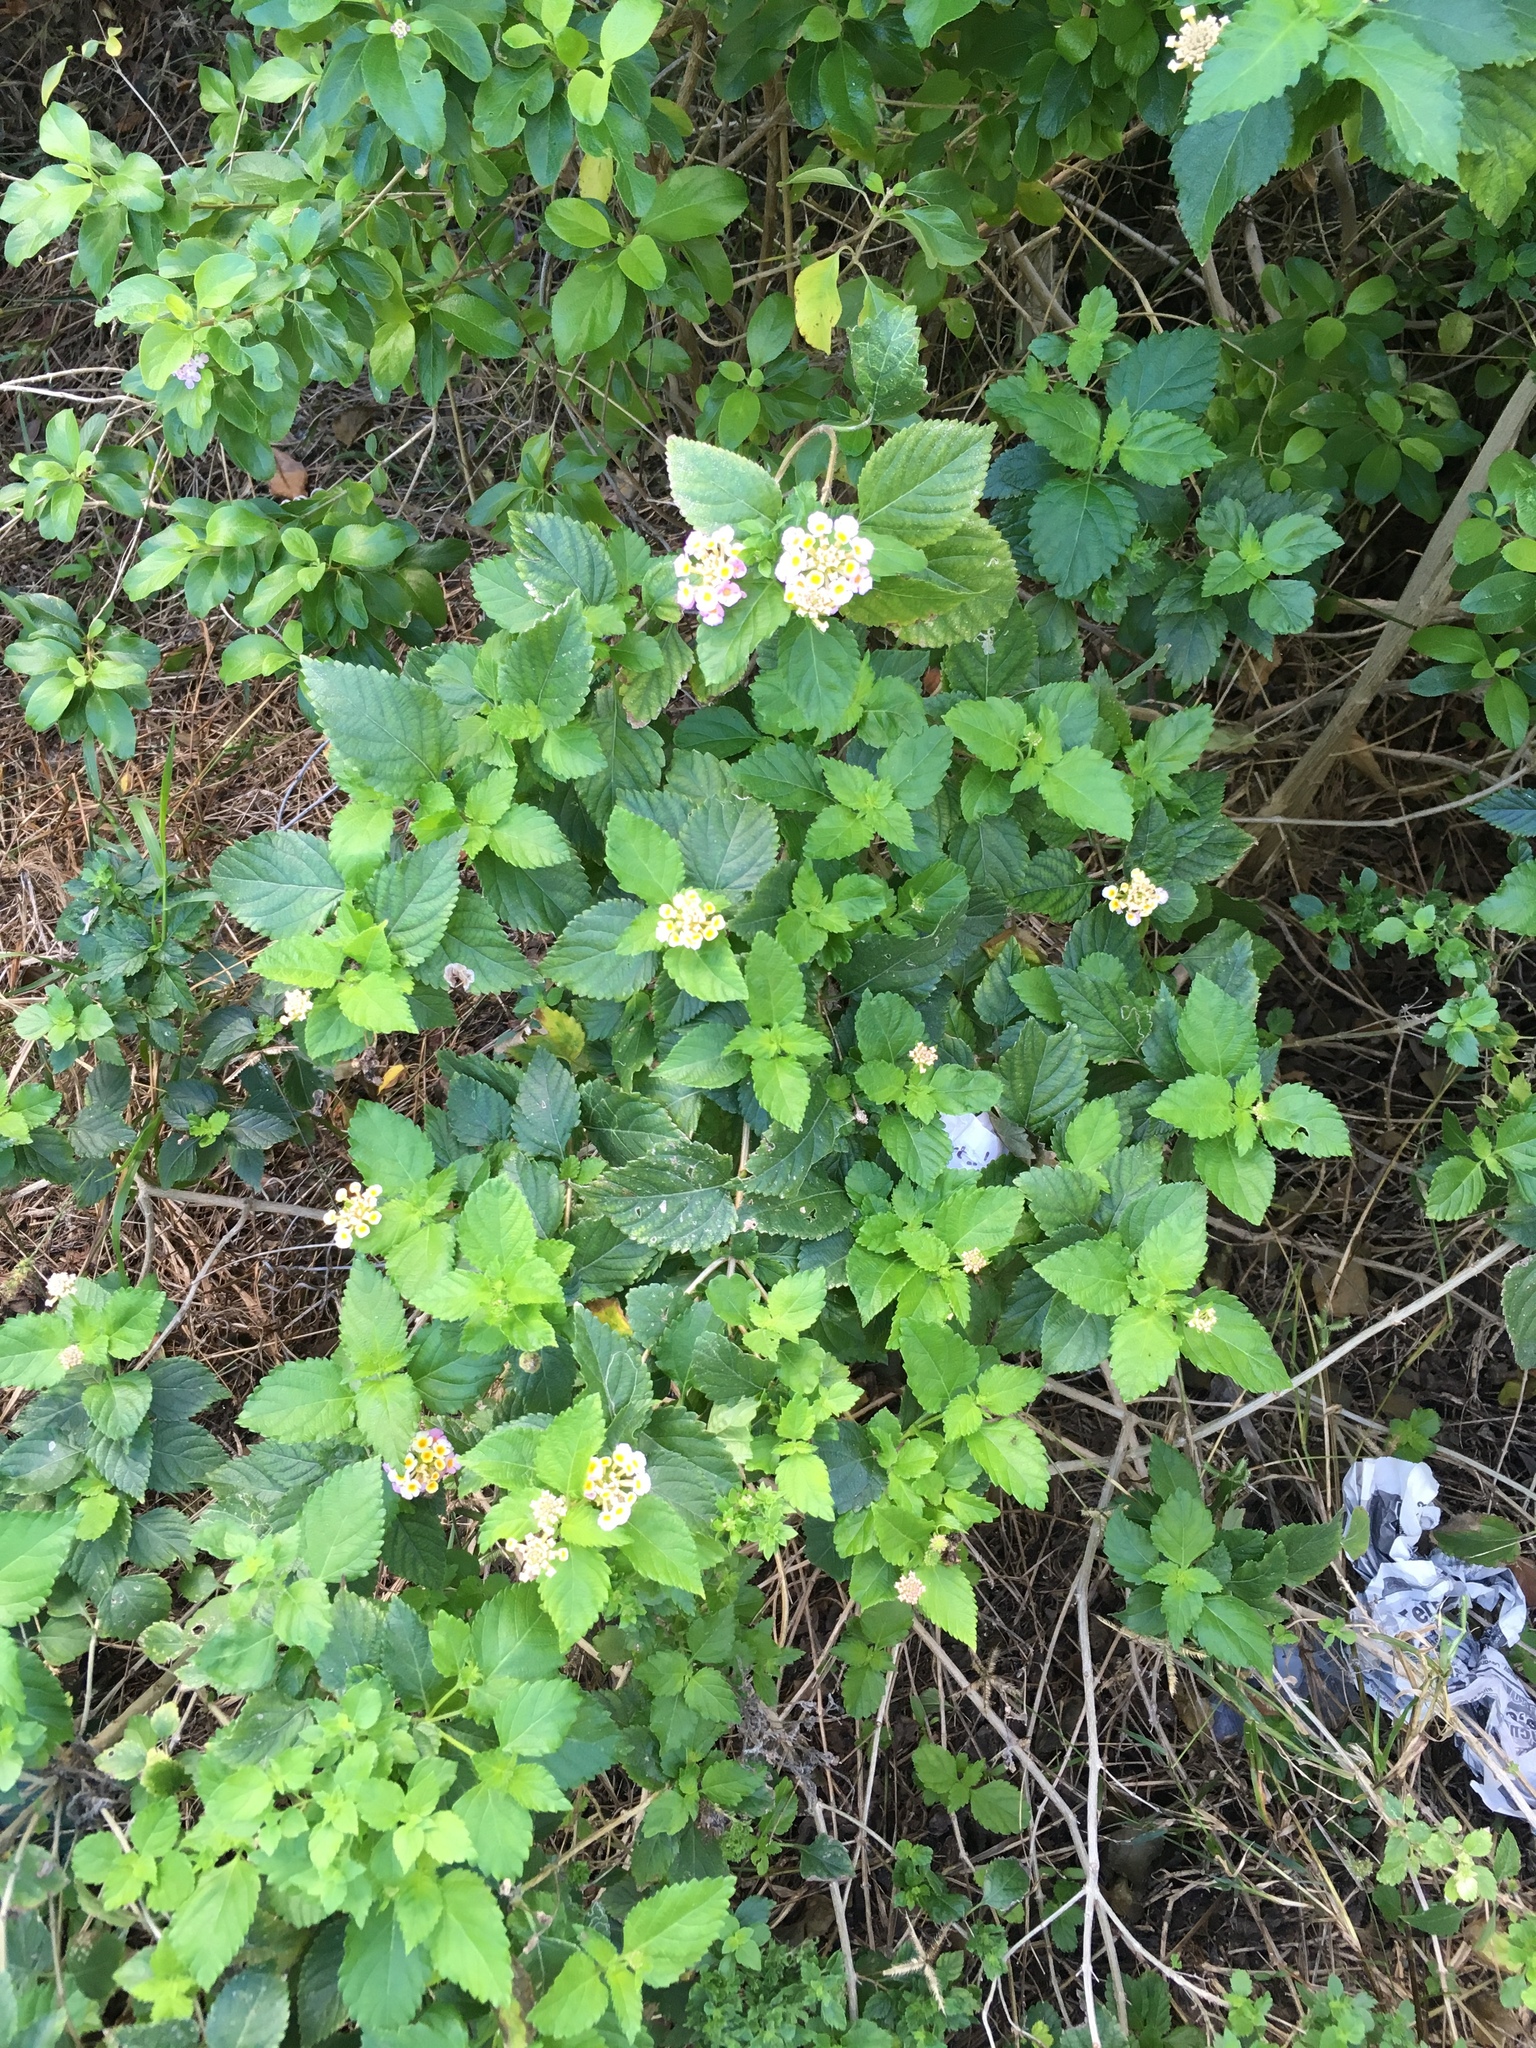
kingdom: Plantae
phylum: Tracheophyta
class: Magnoliopsida
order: Lamiales
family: Verbenaceae
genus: Lantana
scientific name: Lantana camara
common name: Lantana
